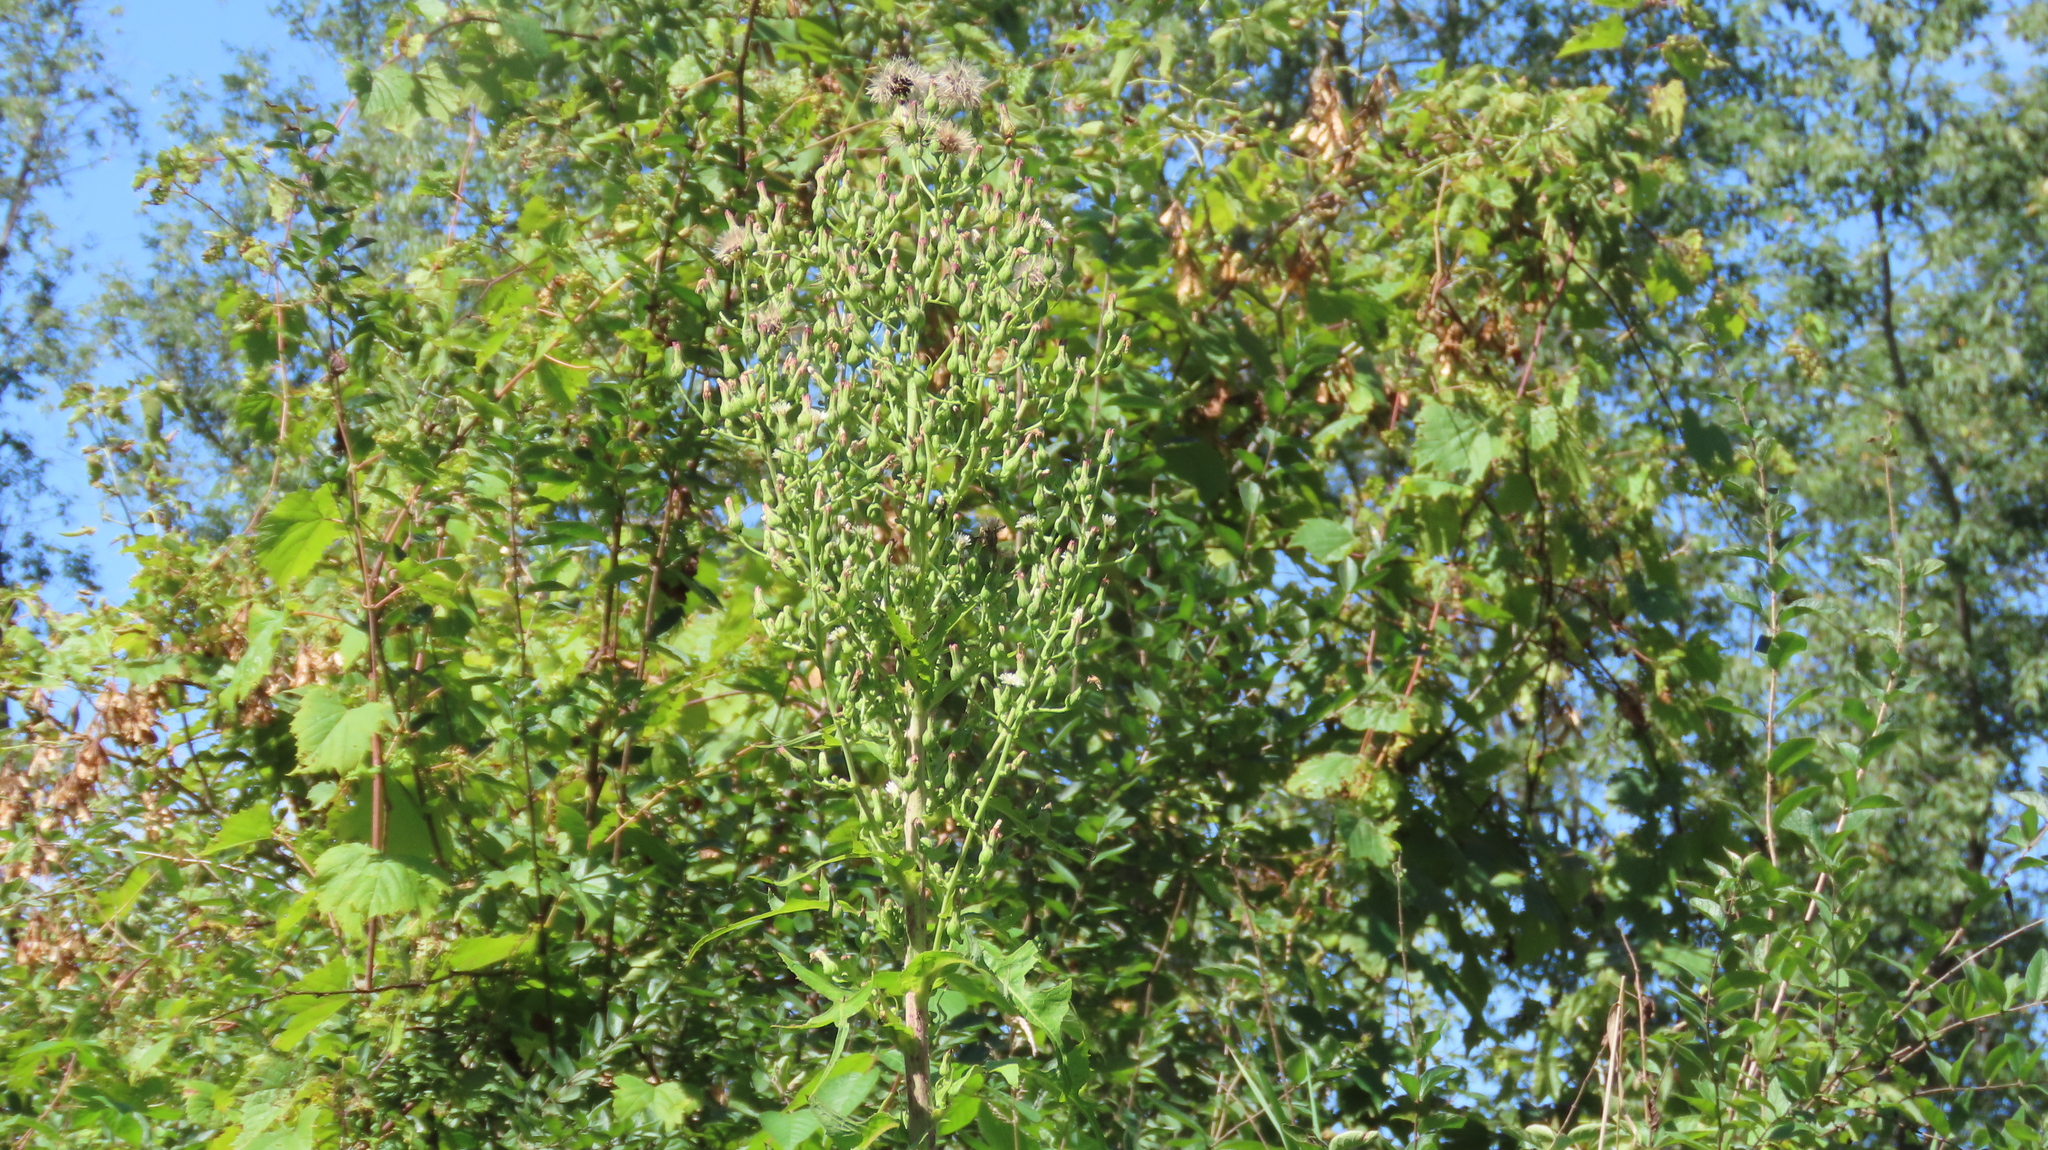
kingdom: Plantae
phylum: Tracheophyta
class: Magnoliopsida
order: Asterales
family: Asteraceae
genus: Lactuca
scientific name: Lactuca biennis
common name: Blue wood lettuce
